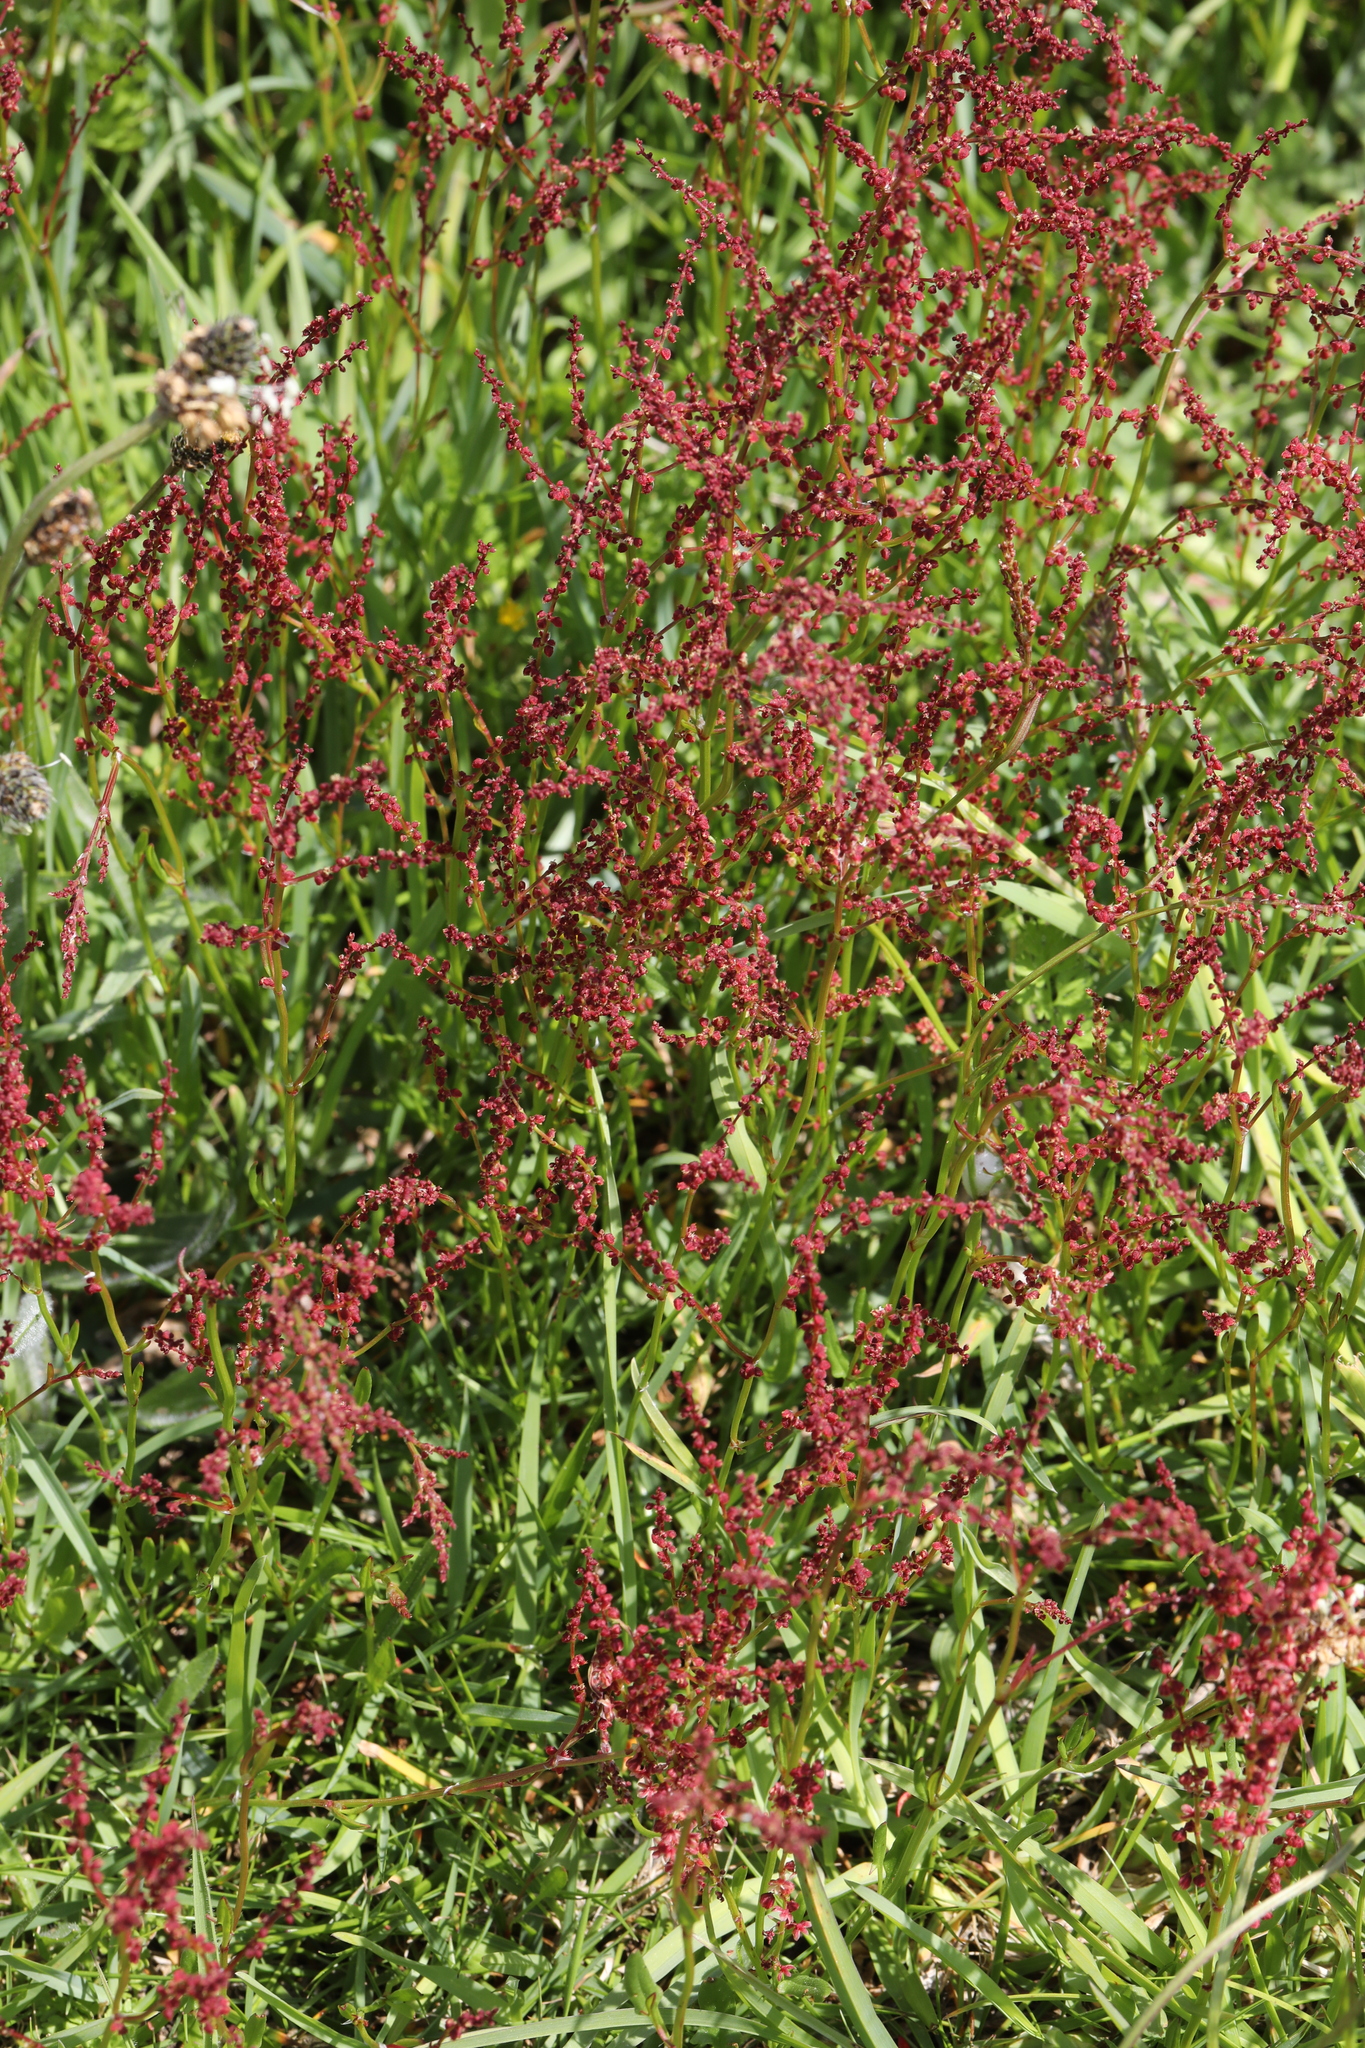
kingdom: Plantae
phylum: Tracheophyta
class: Magnoliopsida
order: Caryophyllales
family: Polygonaceae
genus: Rumex
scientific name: Rumex acetosella
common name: Common sheep sorrel
